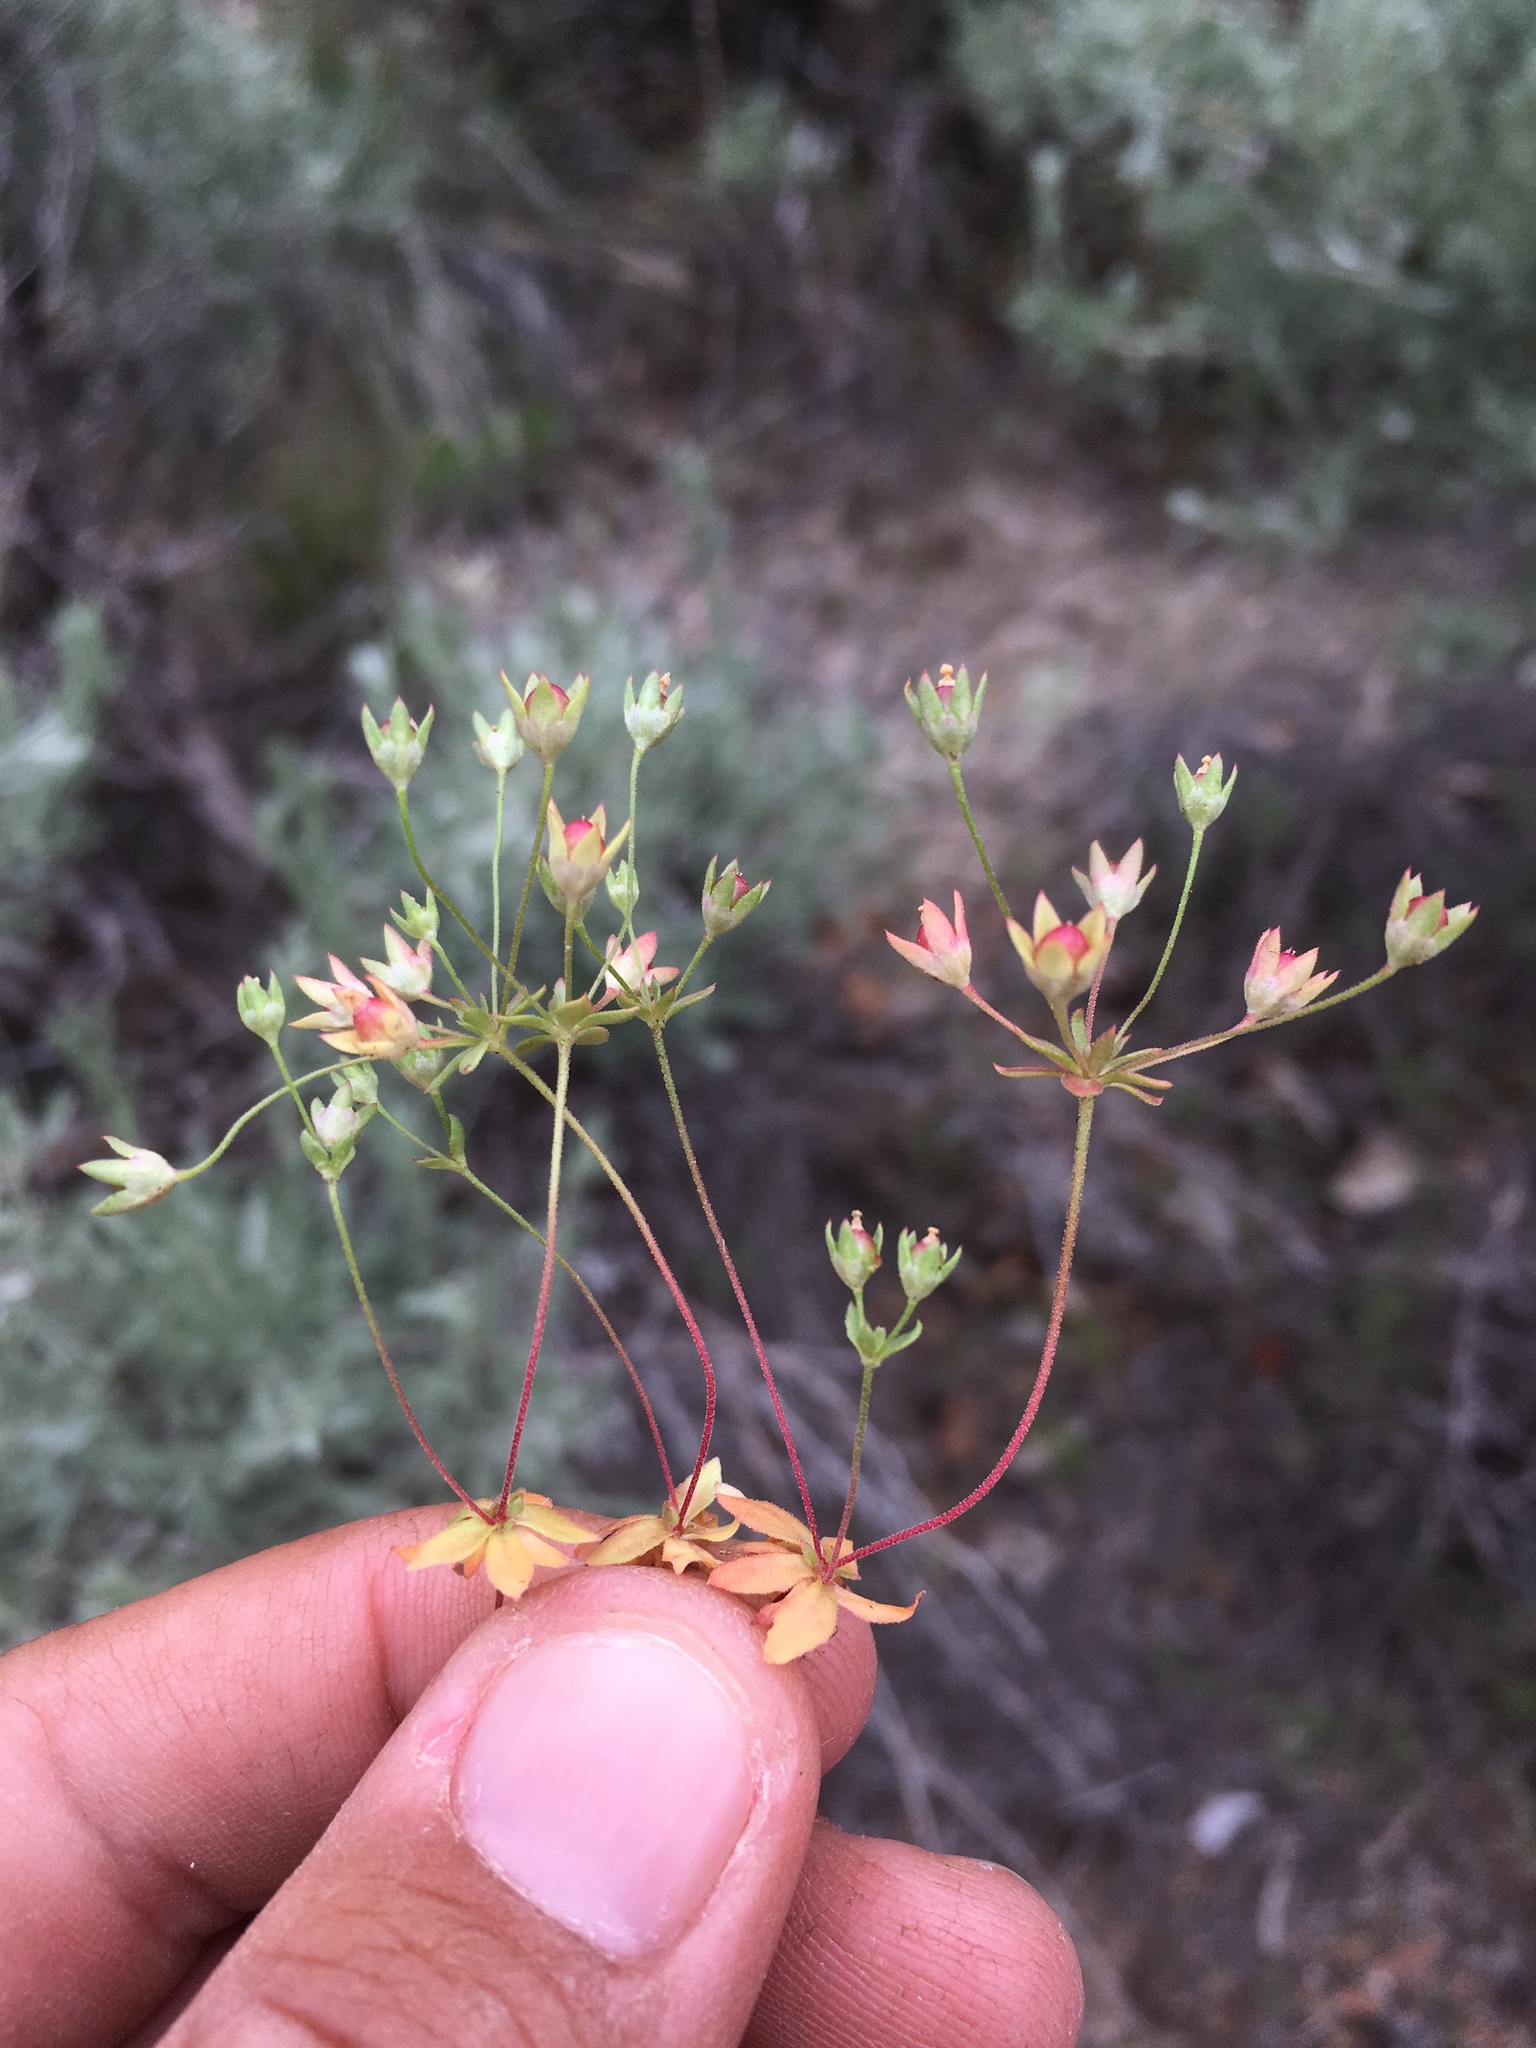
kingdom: Plantae
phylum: Tracheophyta
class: Magnoliopsida
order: Ericales
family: Primulaceae
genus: Androsace
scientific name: Androsace occidentalis
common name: West rock-jasmine
